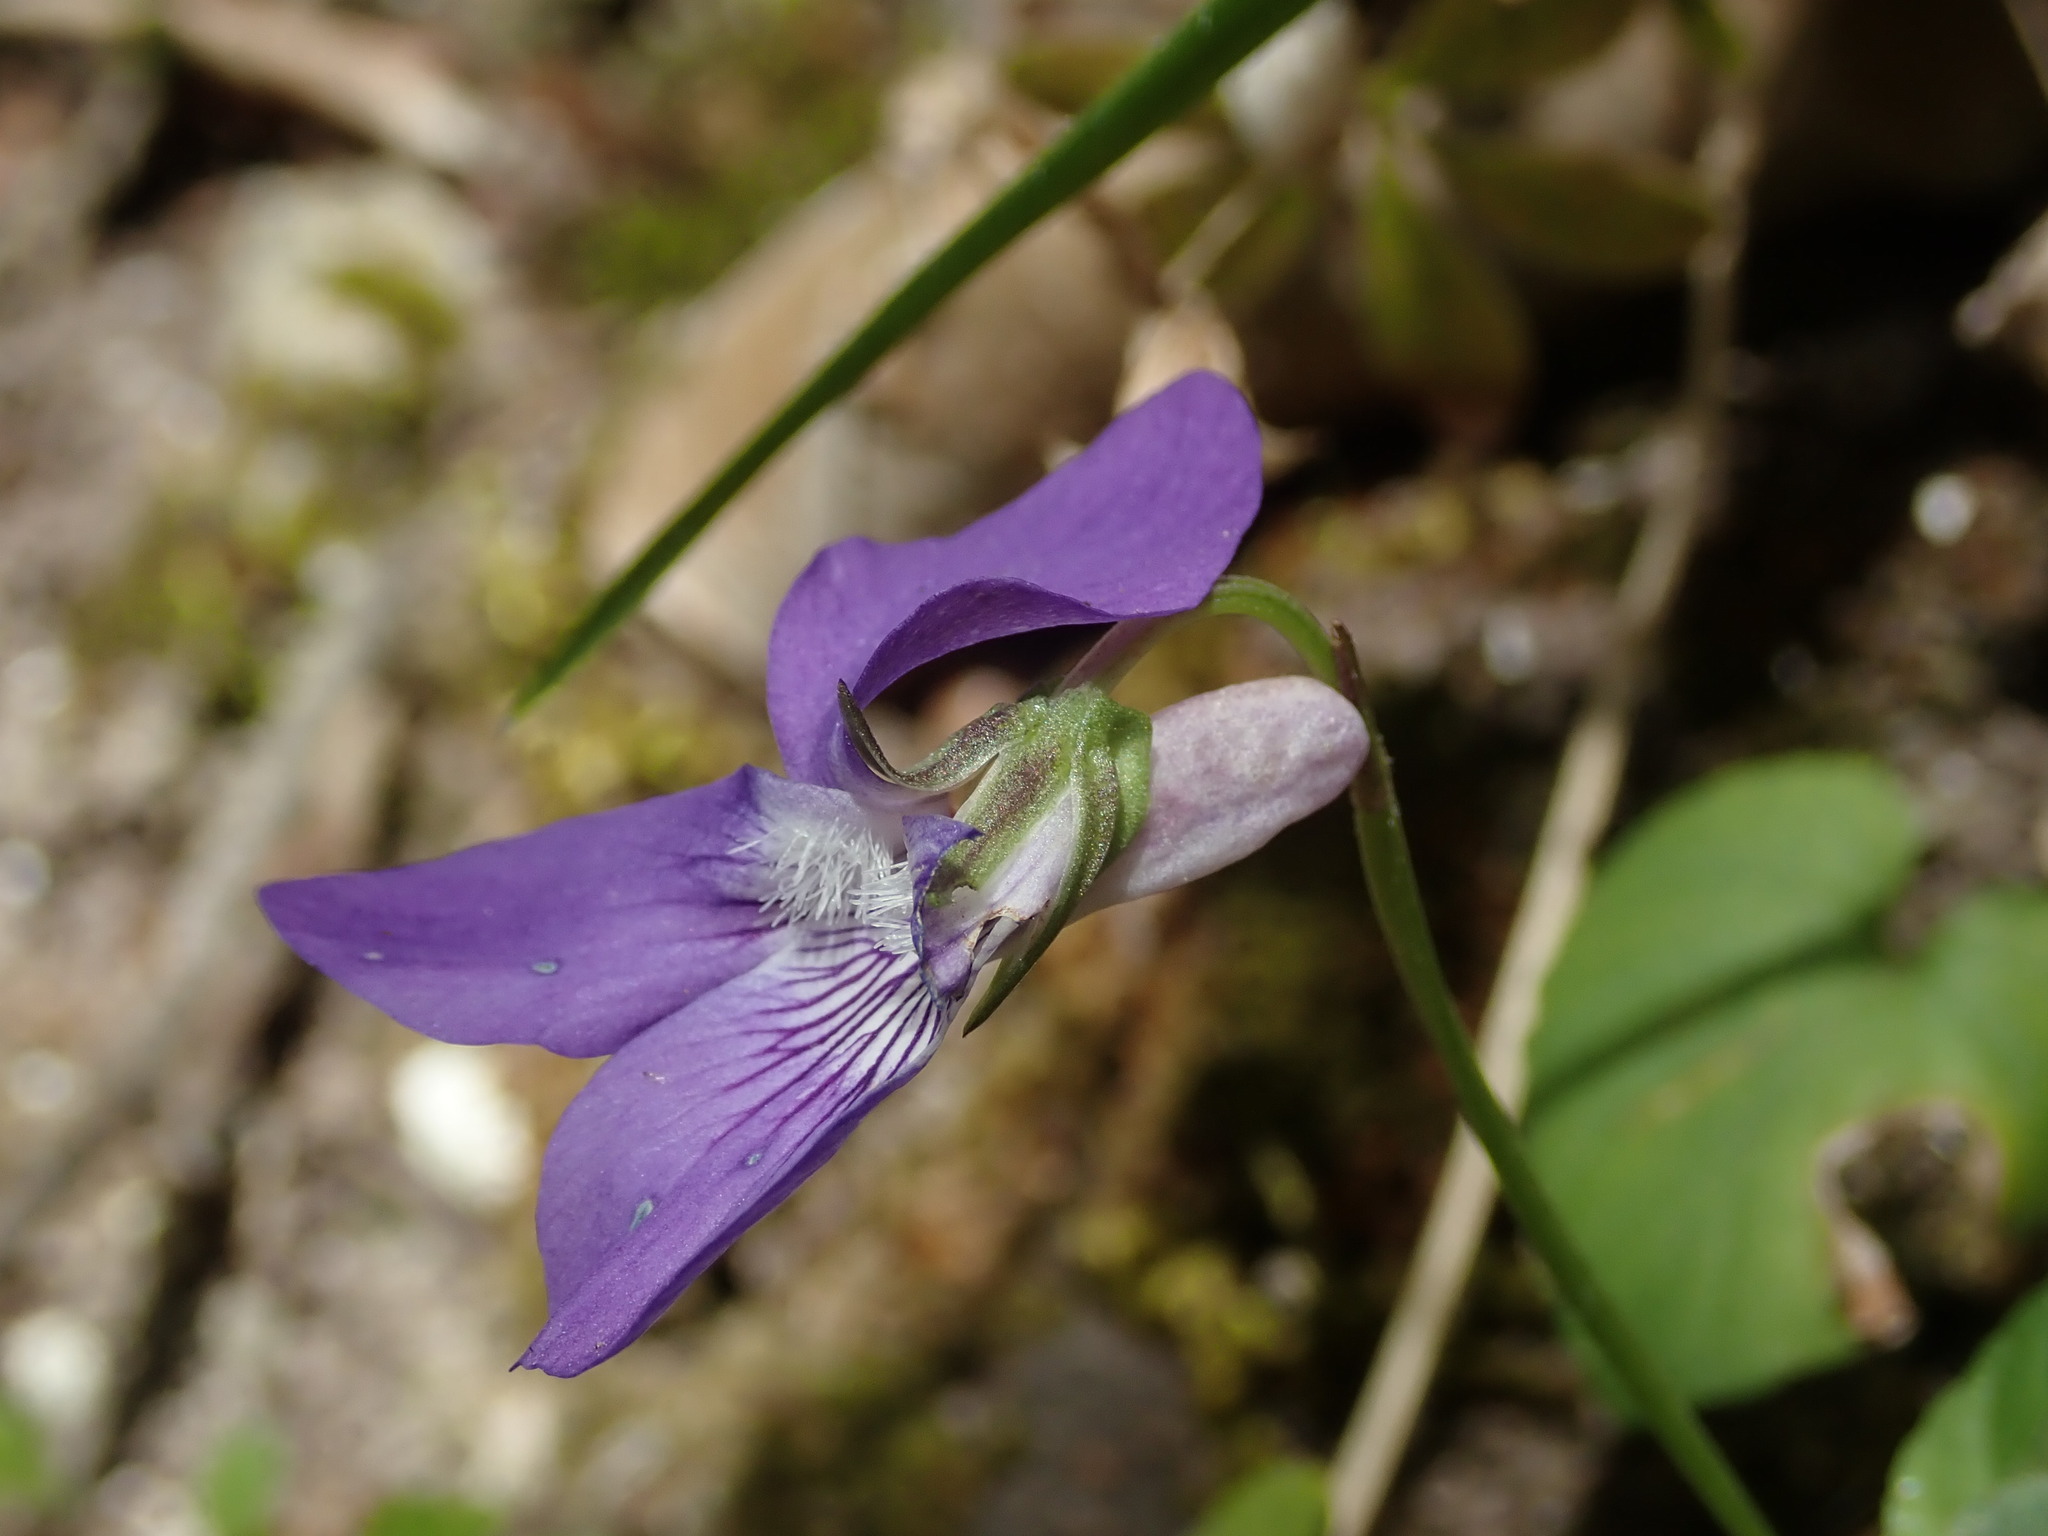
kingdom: Plantae
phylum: Tracheophyta
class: Magnoliopsida
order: Malpighiales
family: Violaceae
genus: Viola
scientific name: Viola riviniana
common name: Common dog-violet
